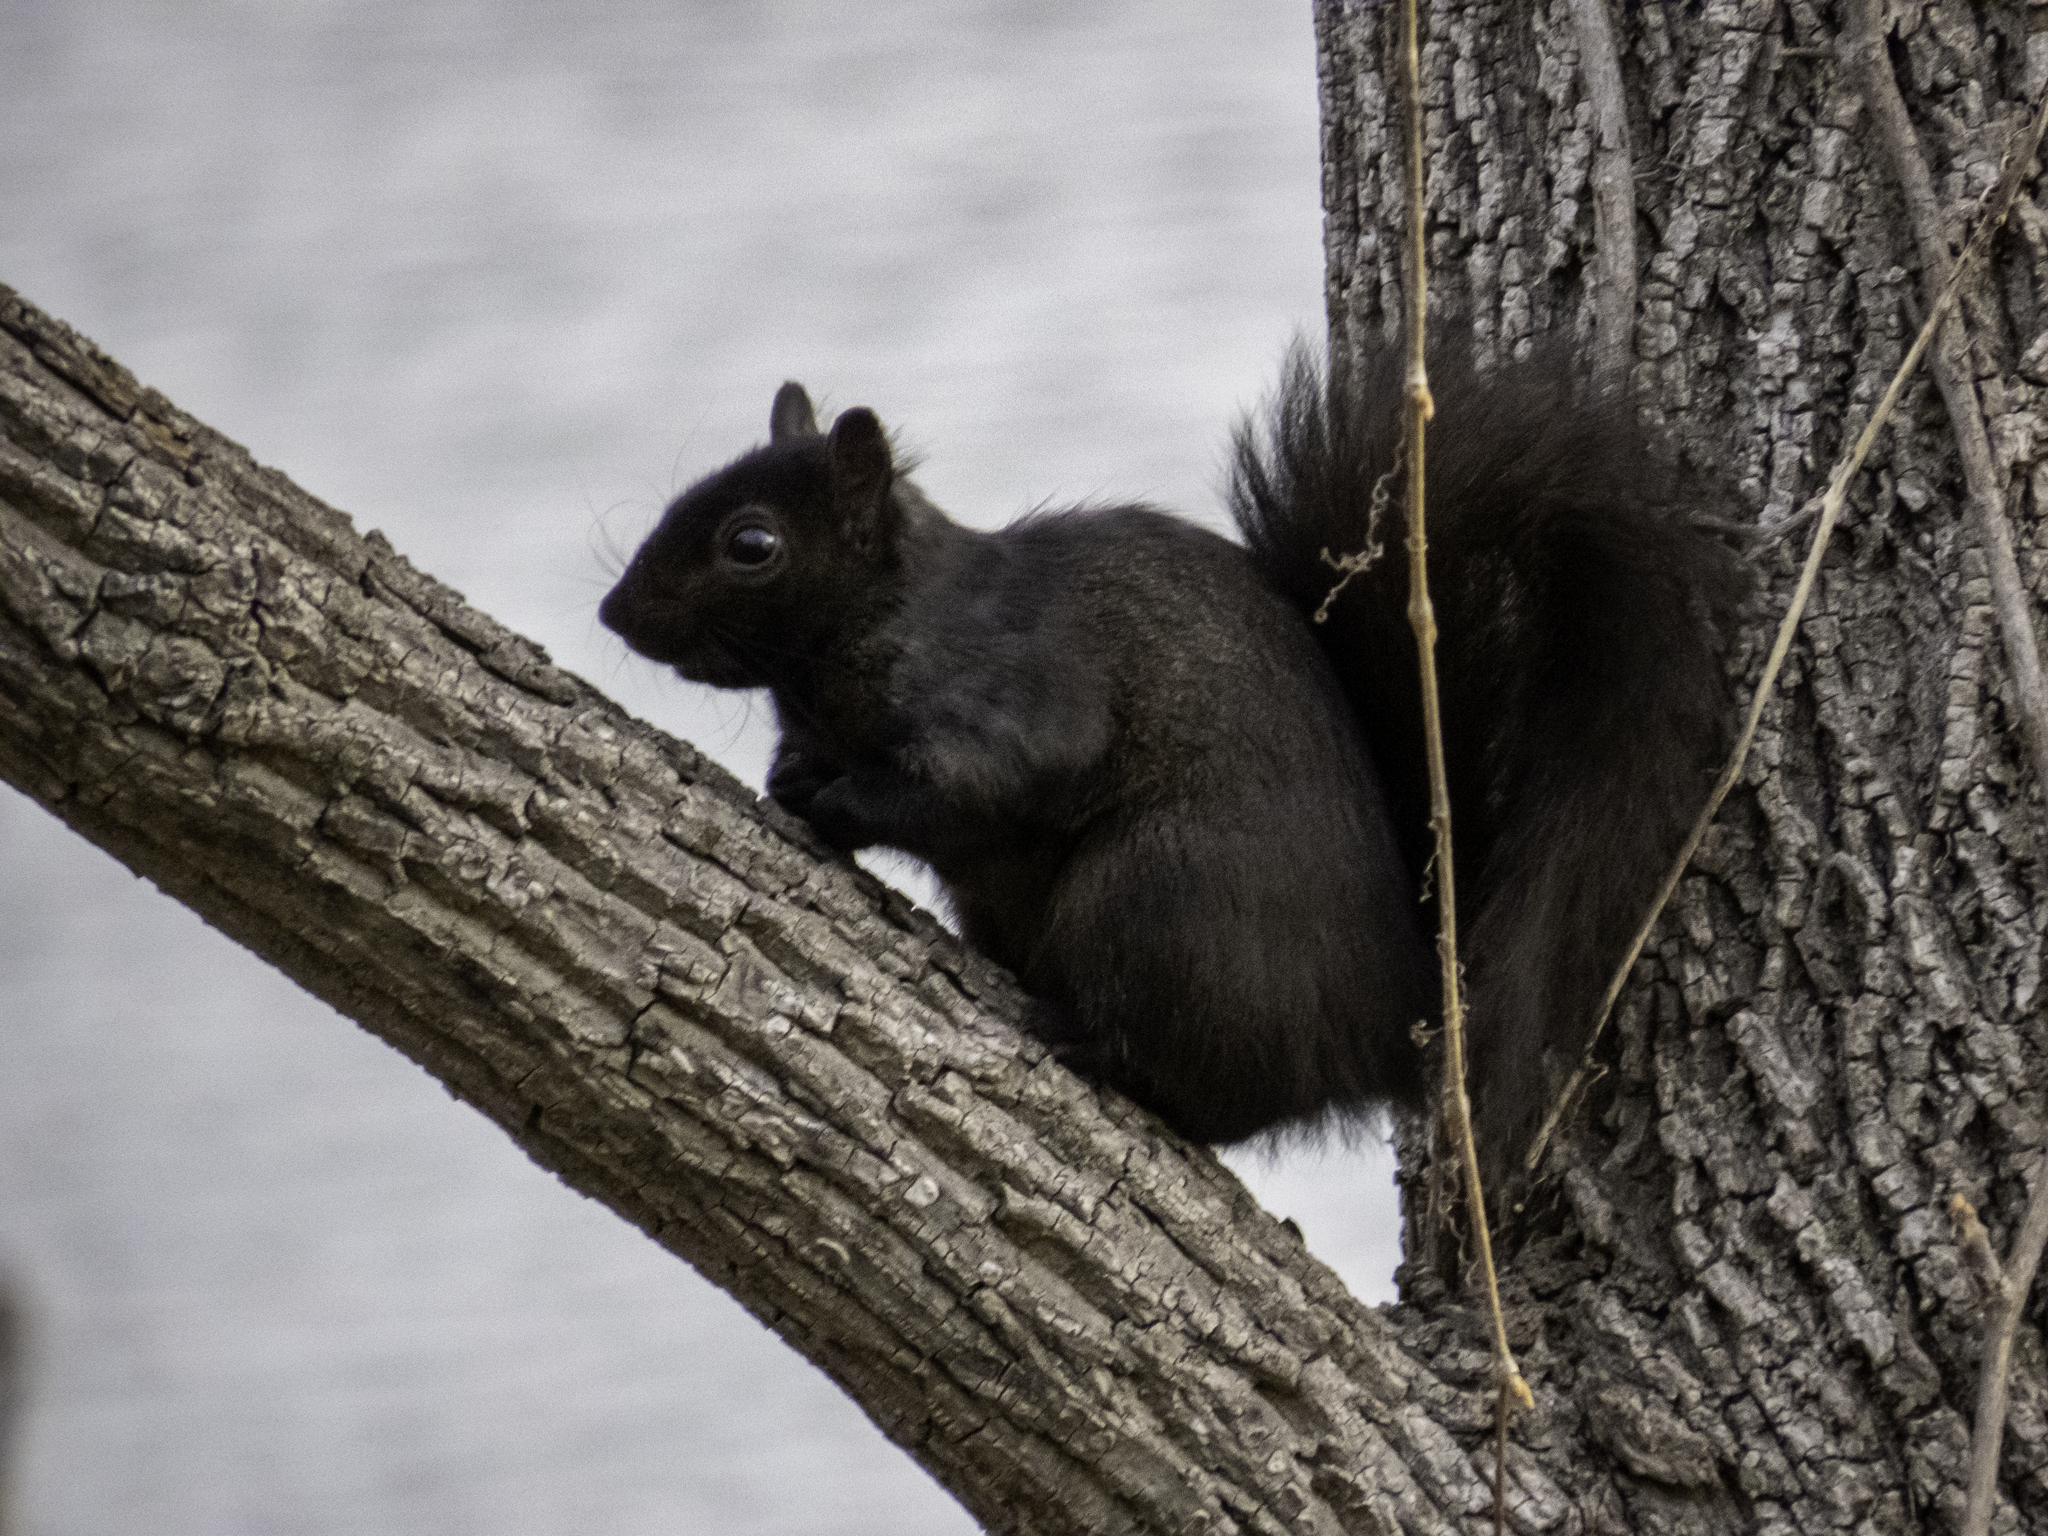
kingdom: Animalia
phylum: Chordata
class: Mammalia
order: Rodentia
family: Sciuridae
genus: Sciurus
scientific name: Sciurus carolinensis
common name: Eastern gray squirrel
